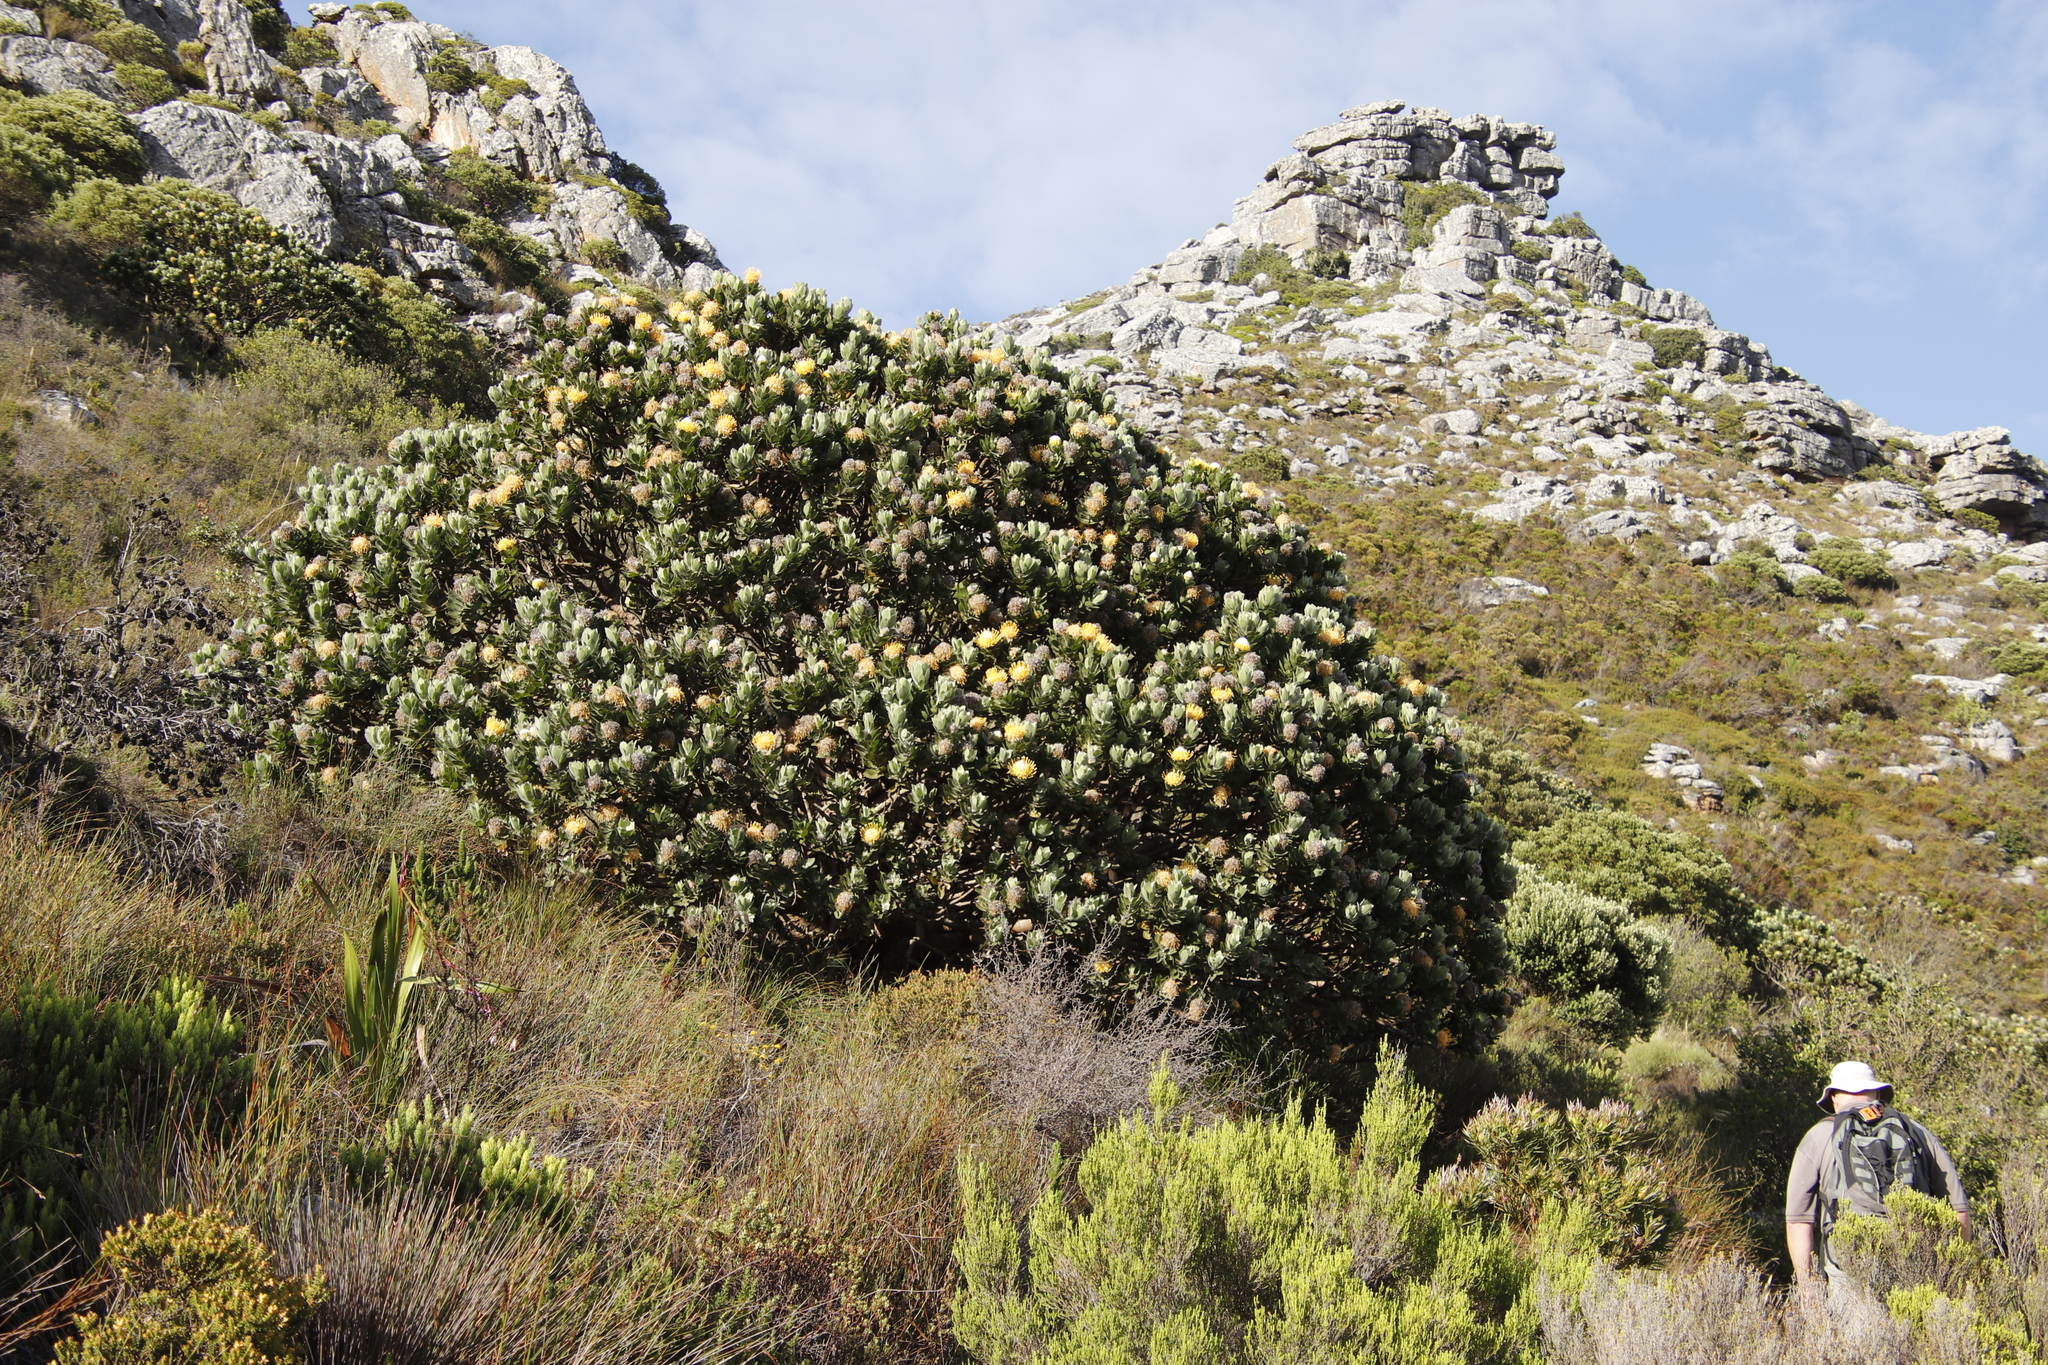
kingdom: Plantae
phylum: Tracheophyta
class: Magnoliopsida
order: Proteales
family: Proteaceae
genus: Leucospermum
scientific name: Leucospermum conocarpodendron
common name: Tree pincushion
